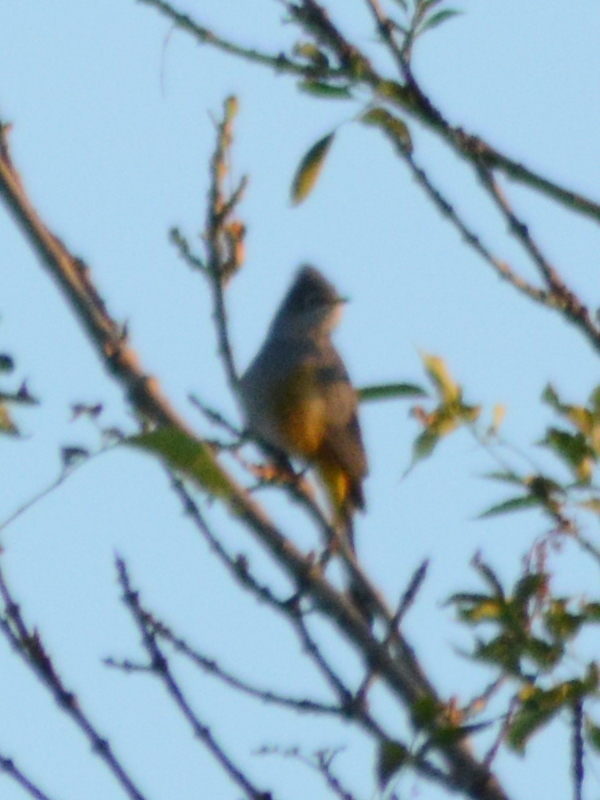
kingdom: Animalia
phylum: Chordata
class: Aves
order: Passeriformes
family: Ptilogonatidae
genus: Ptilogonys
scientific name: Ptilogonys cinereus
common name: Gray silky-flycatcher
